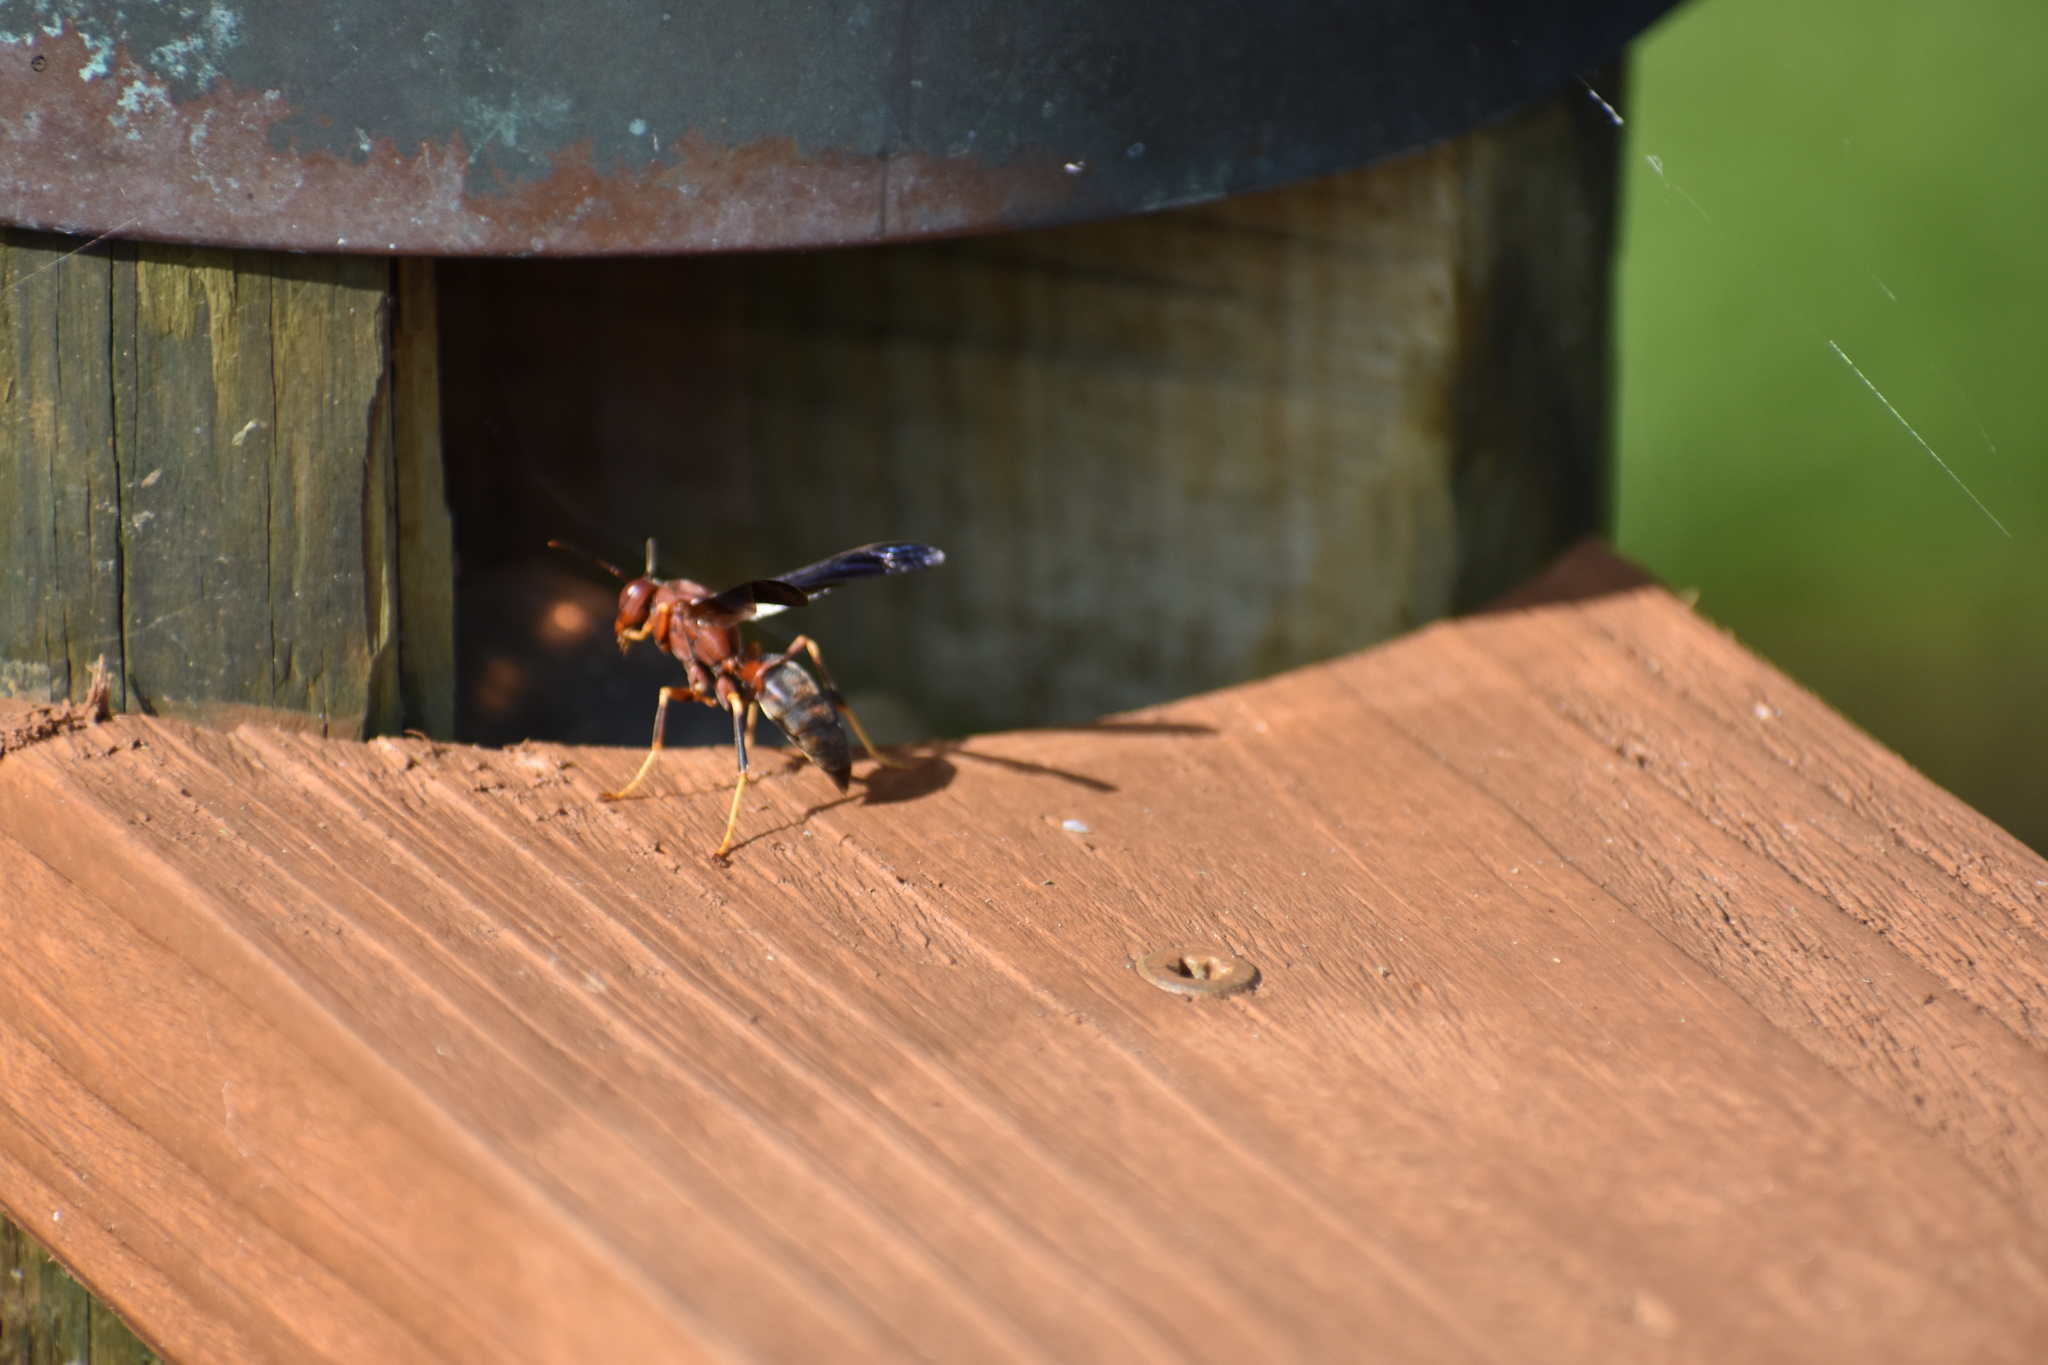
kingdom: Animalia
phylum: Arthropoda
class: Insecta
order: Hymenoptera
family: Eumenidae
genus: Polistes
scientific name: Polistes metricus
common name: Metric paper wasp
